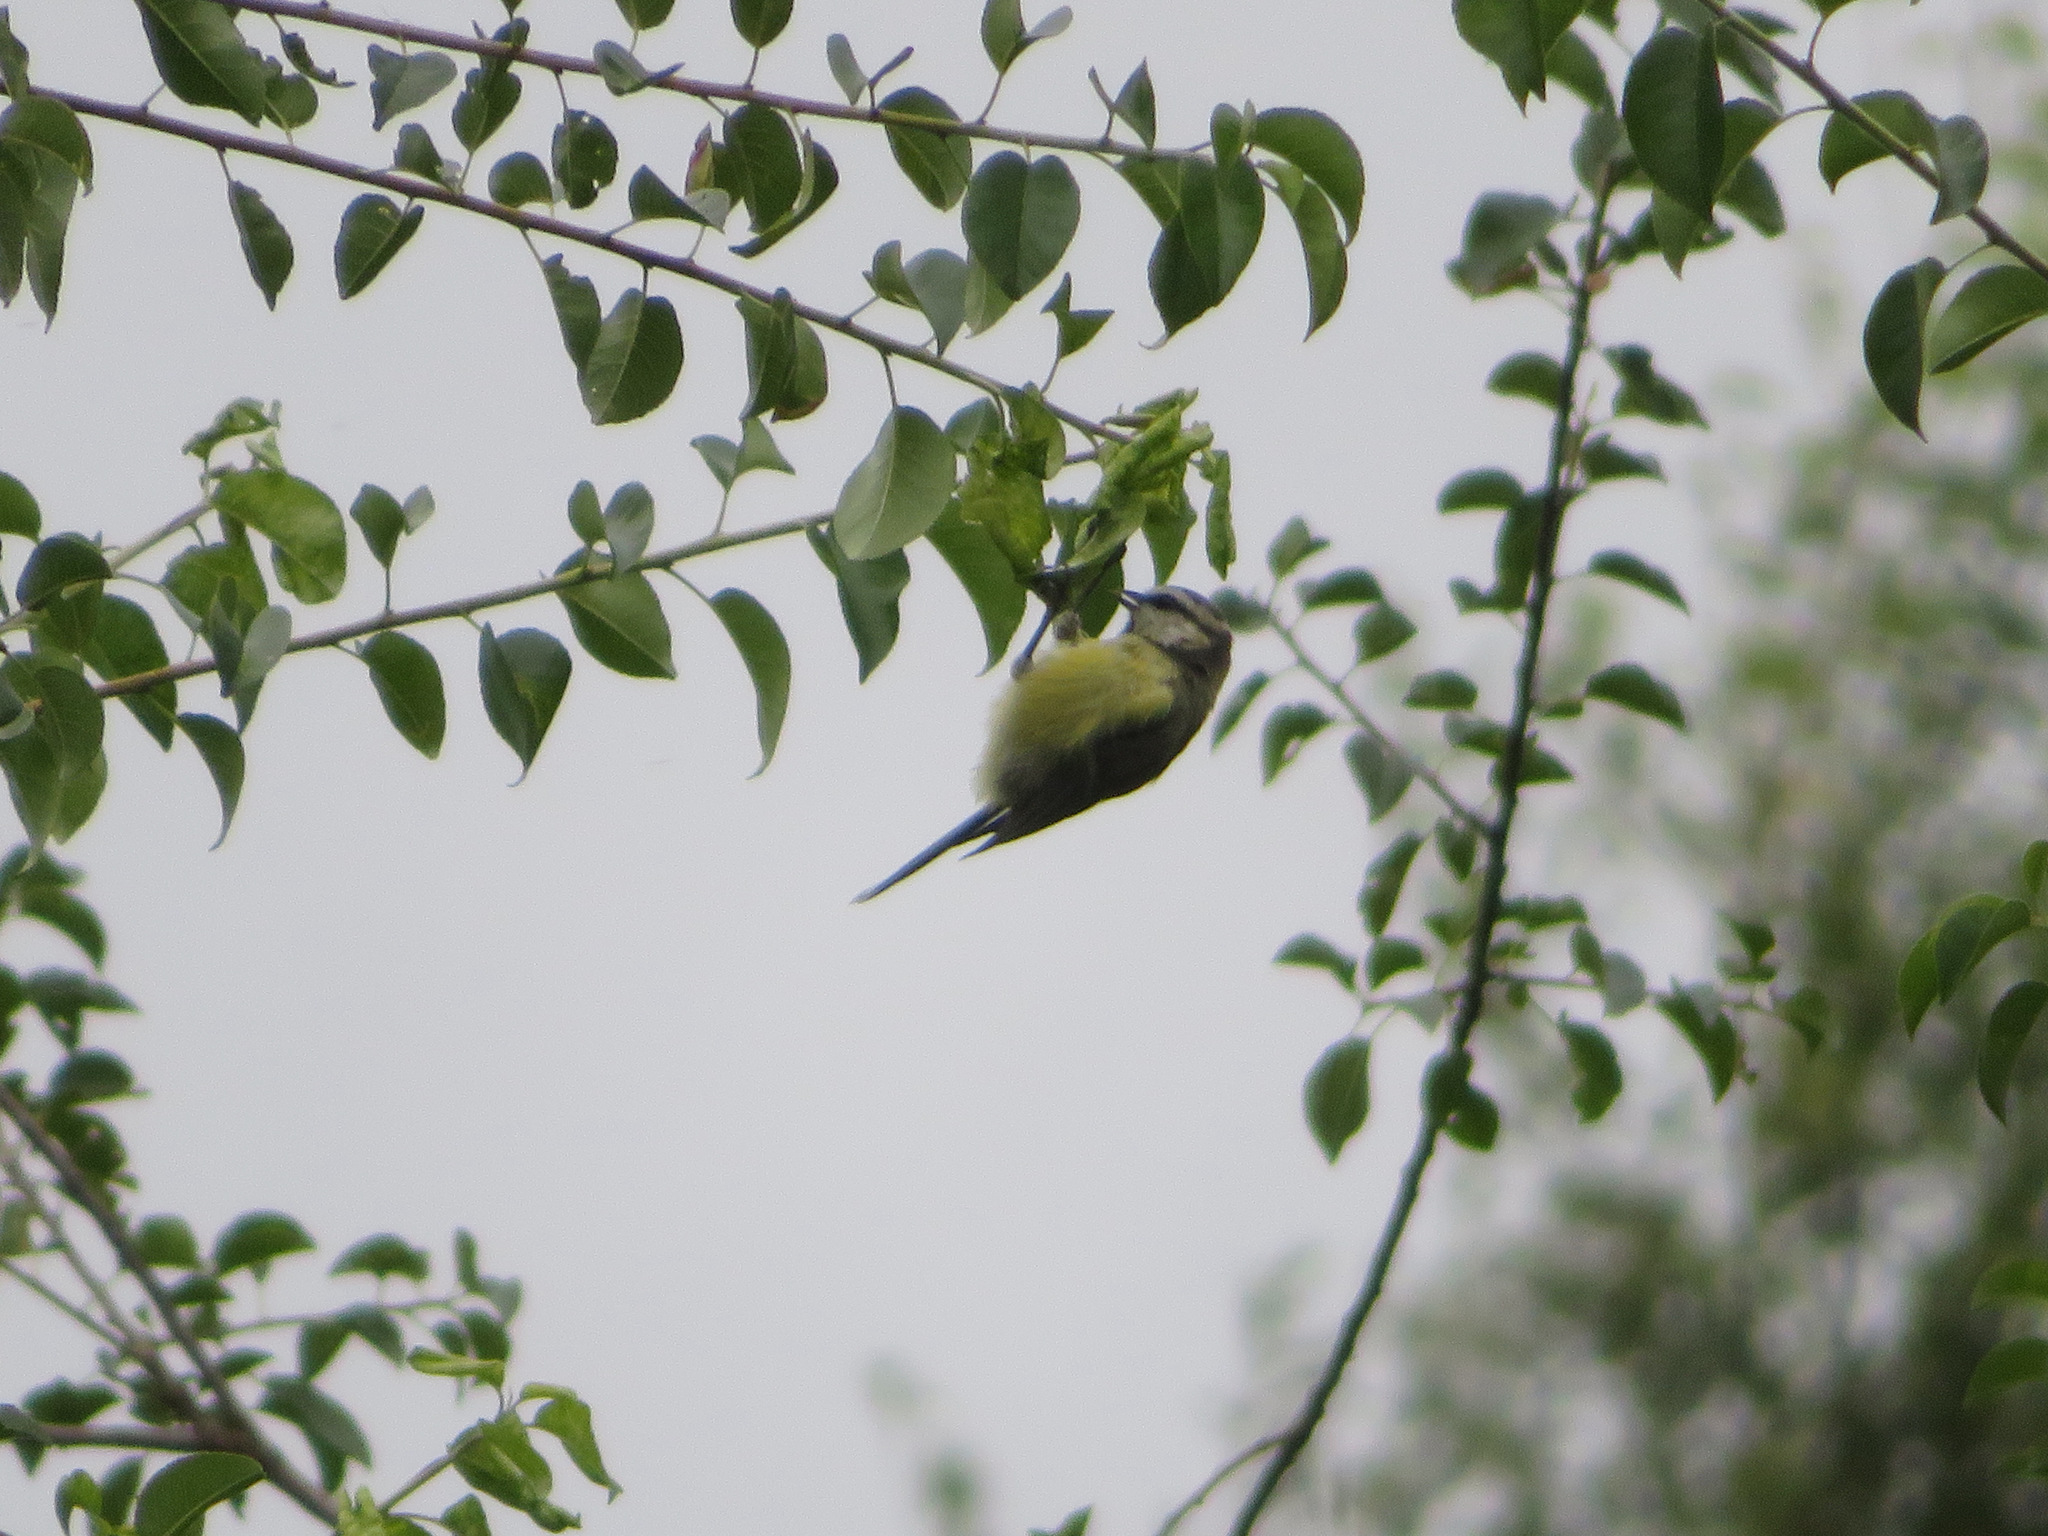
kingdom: Animalia
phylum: Chordata
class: Aves
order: Passeriformes
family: Paridae
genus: Cyanistes
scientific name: Cyanistes caeruleus
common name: Eurasian blue tit
